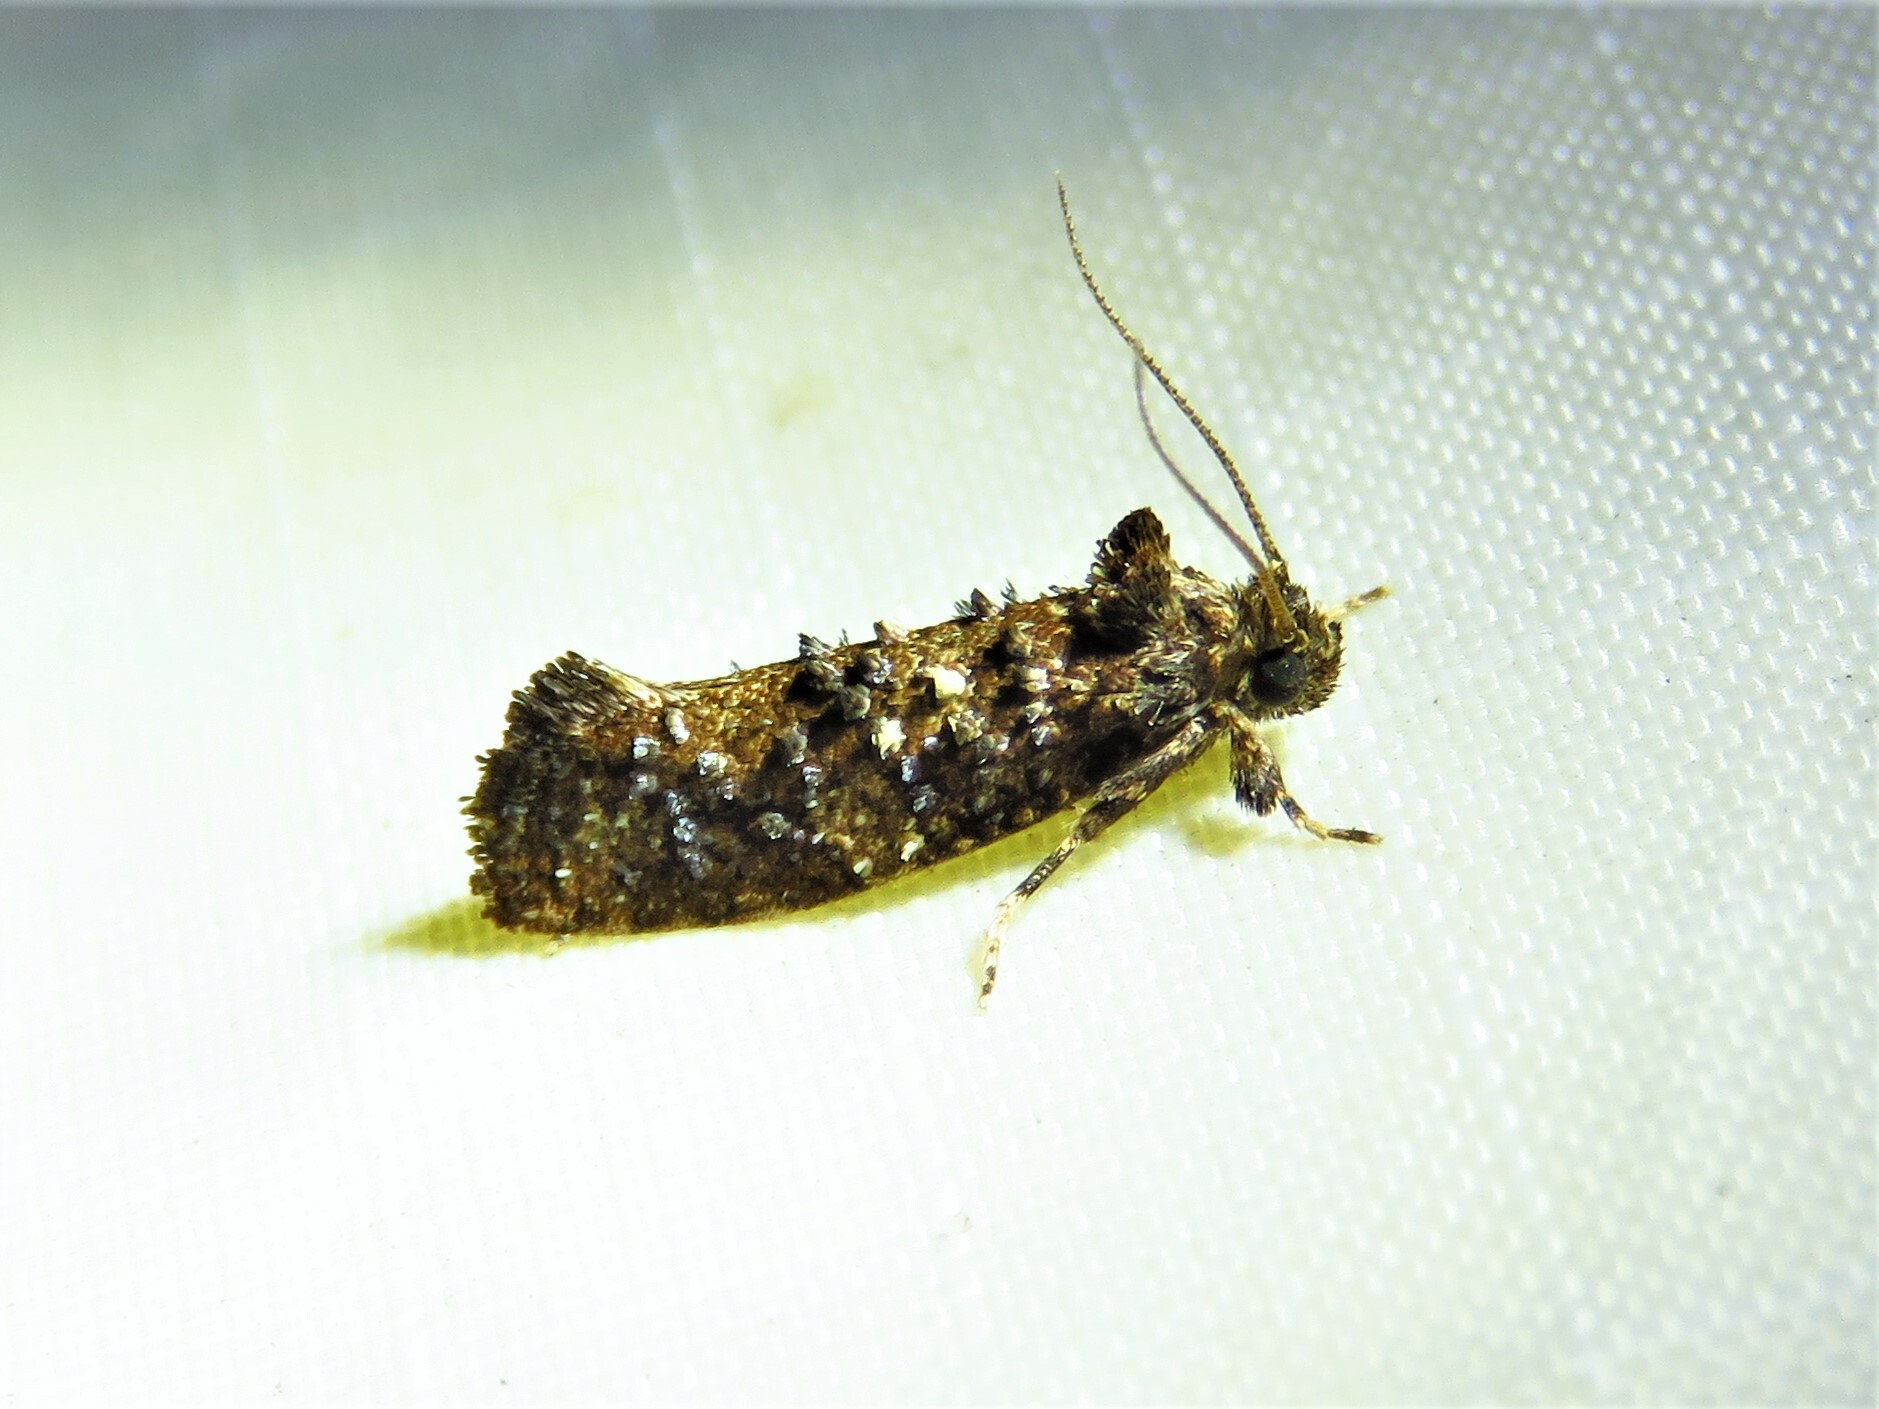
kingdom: Animalia
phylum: Arthropoda
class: Insecta
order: Lepidoptera
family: Tineidae
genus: Acrolophus
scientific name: Acrolophus cressoni
